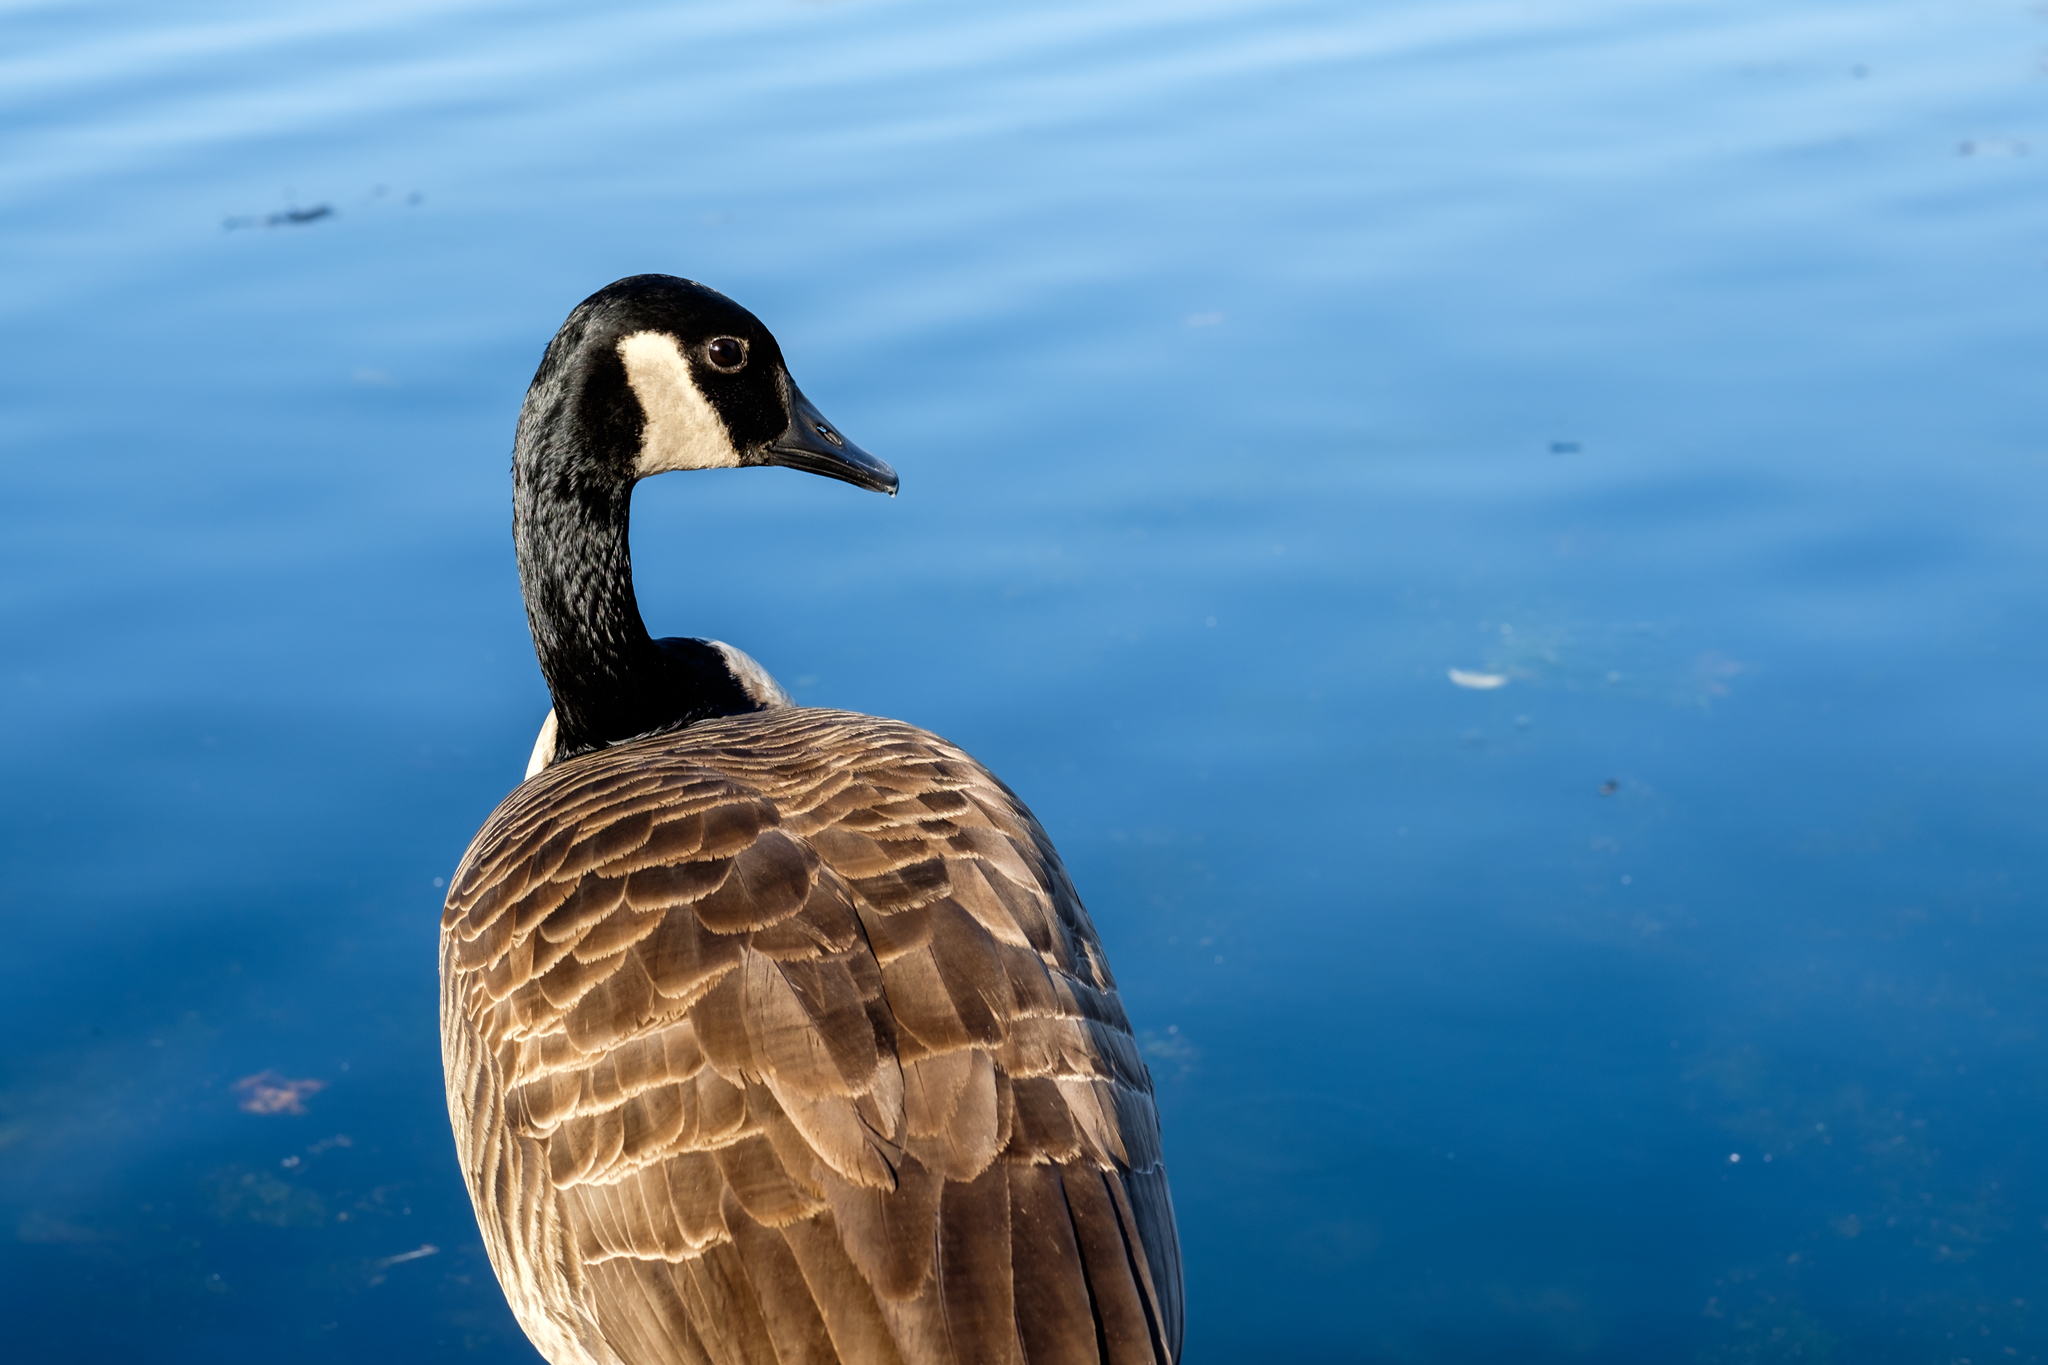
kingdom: Animalia
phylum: Chordata
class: Aves
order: Anseriformes
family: Anatidae
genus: Branta
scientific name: Branta canadensis
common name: Canada goose
